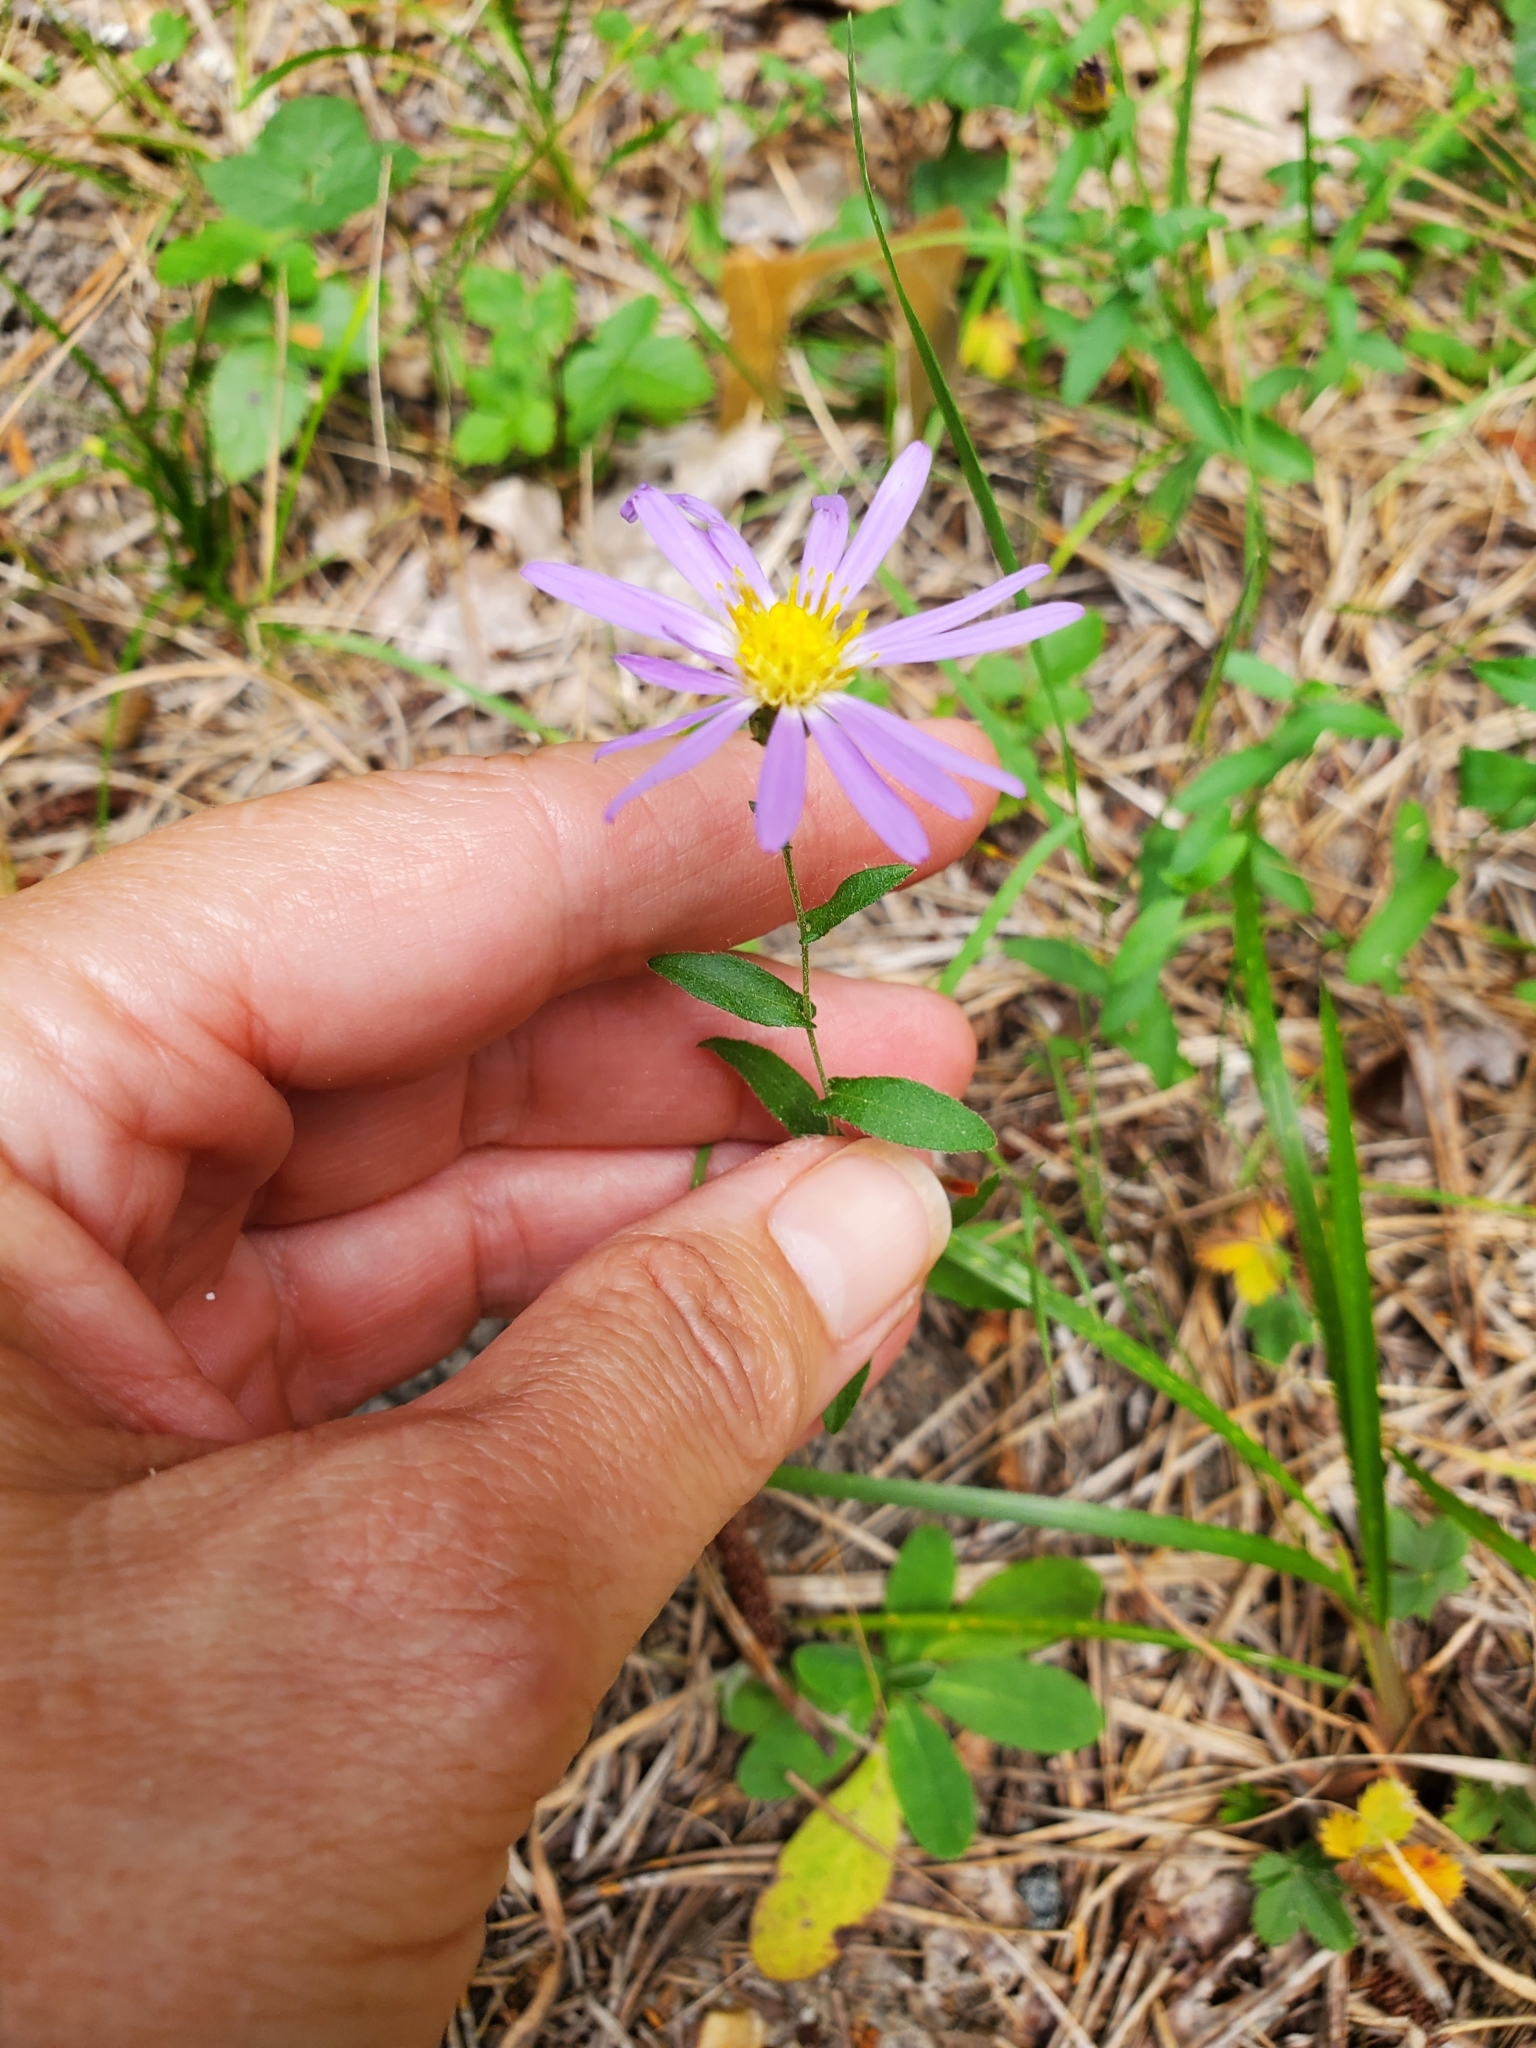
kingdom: Plantae
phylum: Tracheophyta
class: Magnoliopsida
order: Asterales
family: Asteraceae
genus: Symphyotrichum
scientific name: Symphyotrichum patens
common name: Late purple aster
